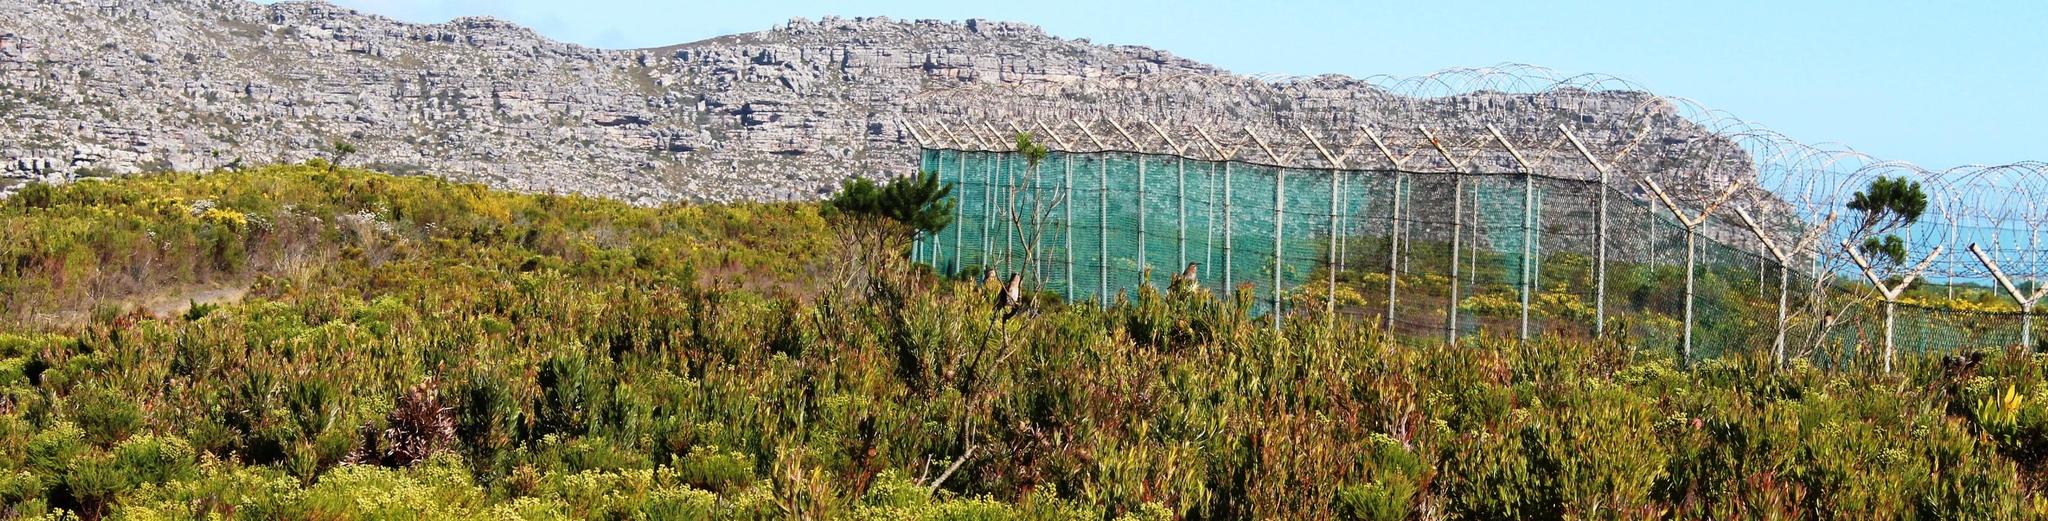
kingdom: Animalia
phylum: Chordata
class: Aves
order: Passeriformes
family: Promeropidae
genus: Promerops
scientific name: Promerops cafer
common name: Cape sugarbird
